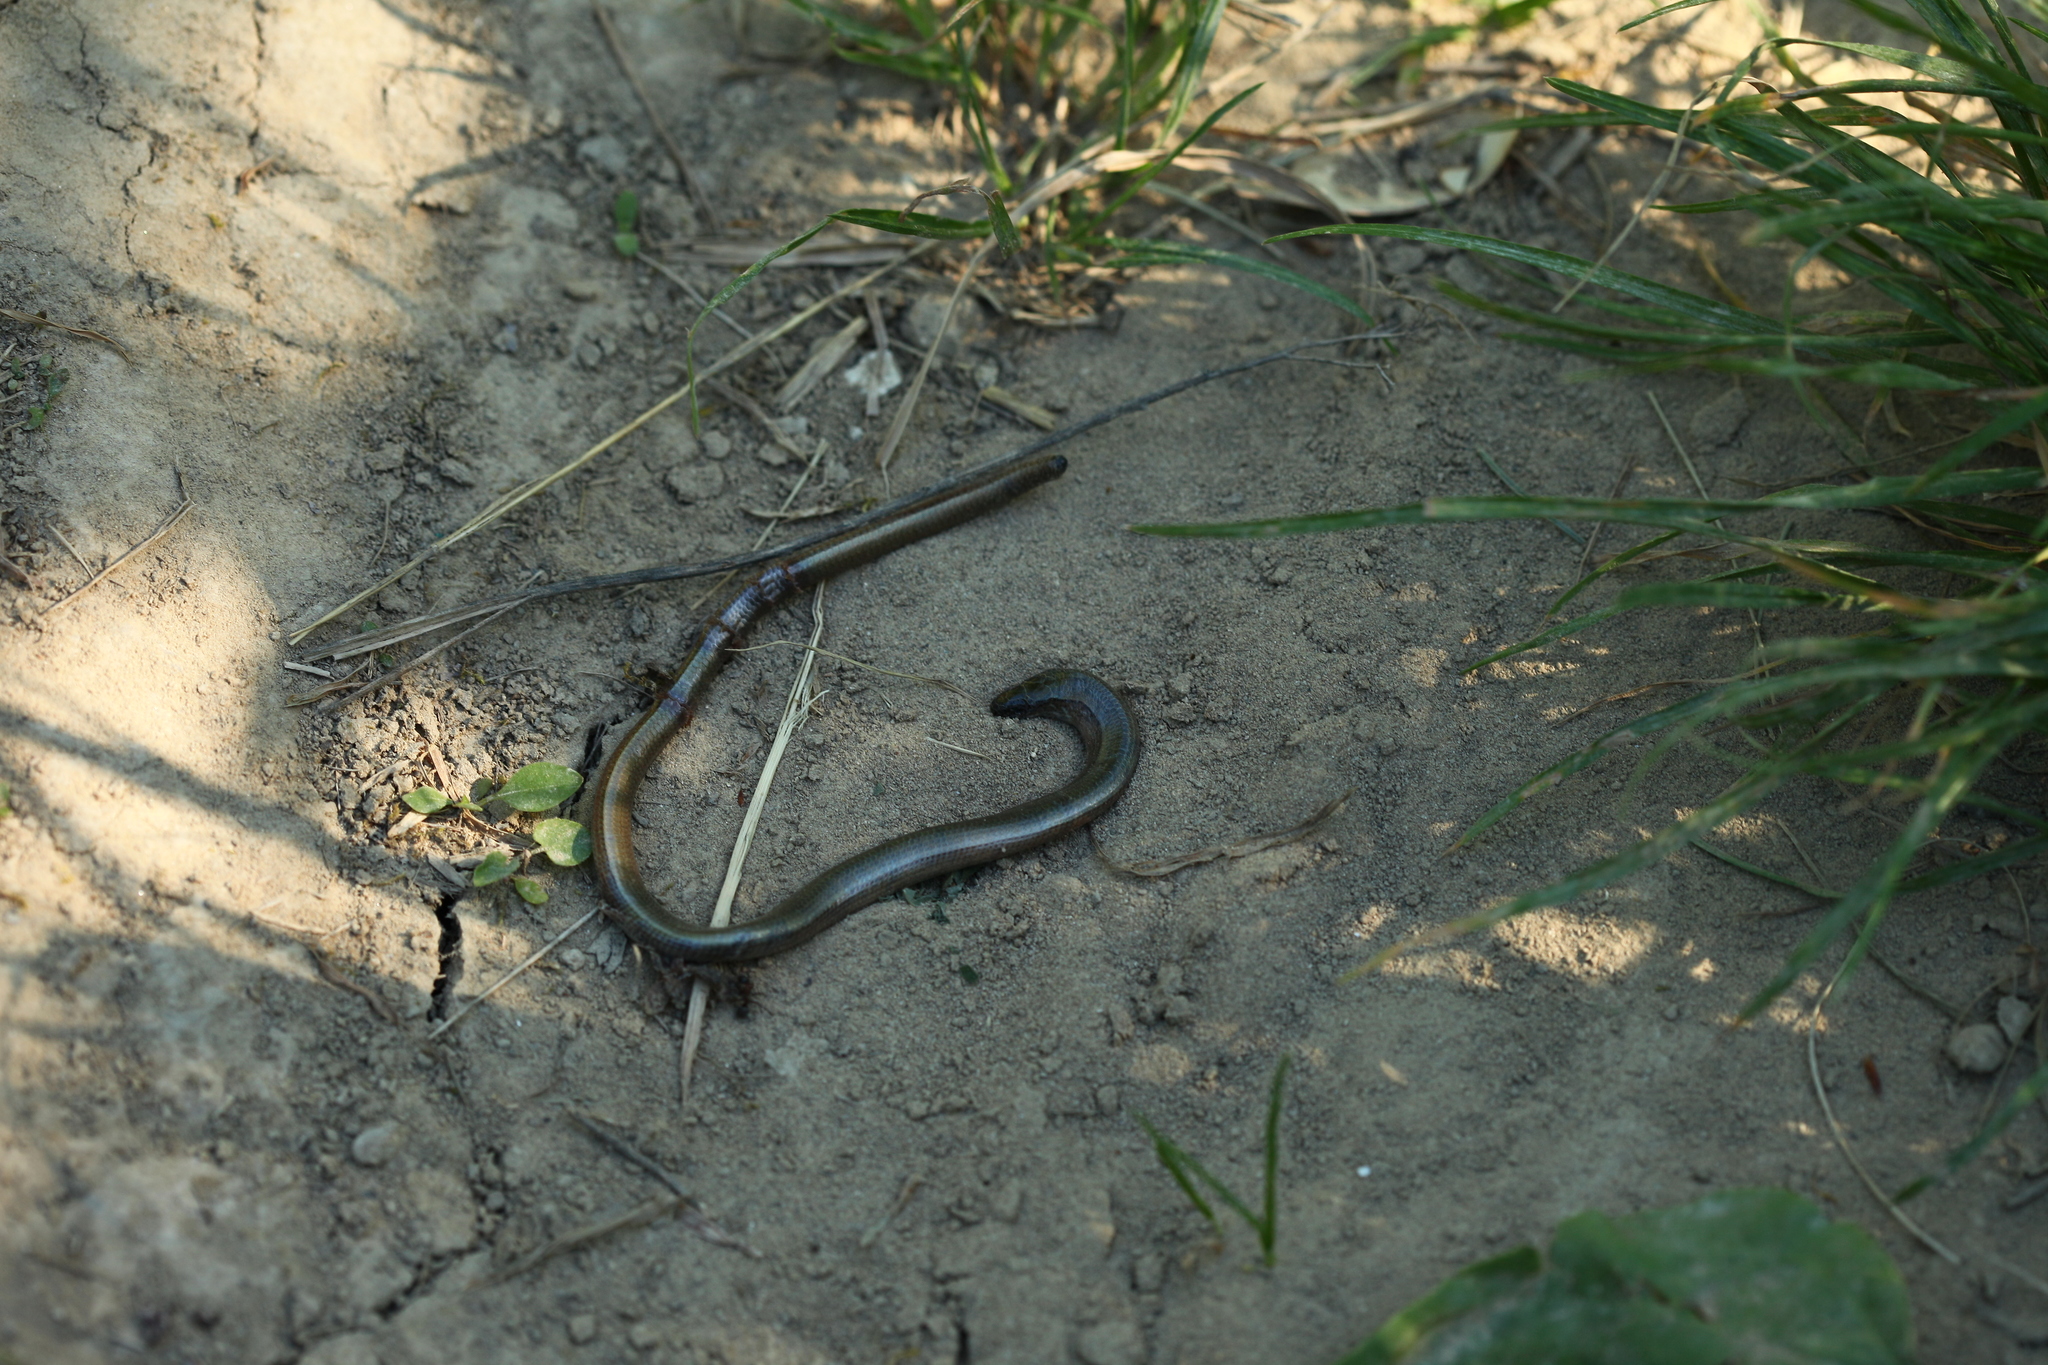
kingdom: Animalia
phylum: Chordata
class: Squamata
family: Anguidae
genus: Anguis
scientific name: Anguis fragilis
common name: Slow worm
